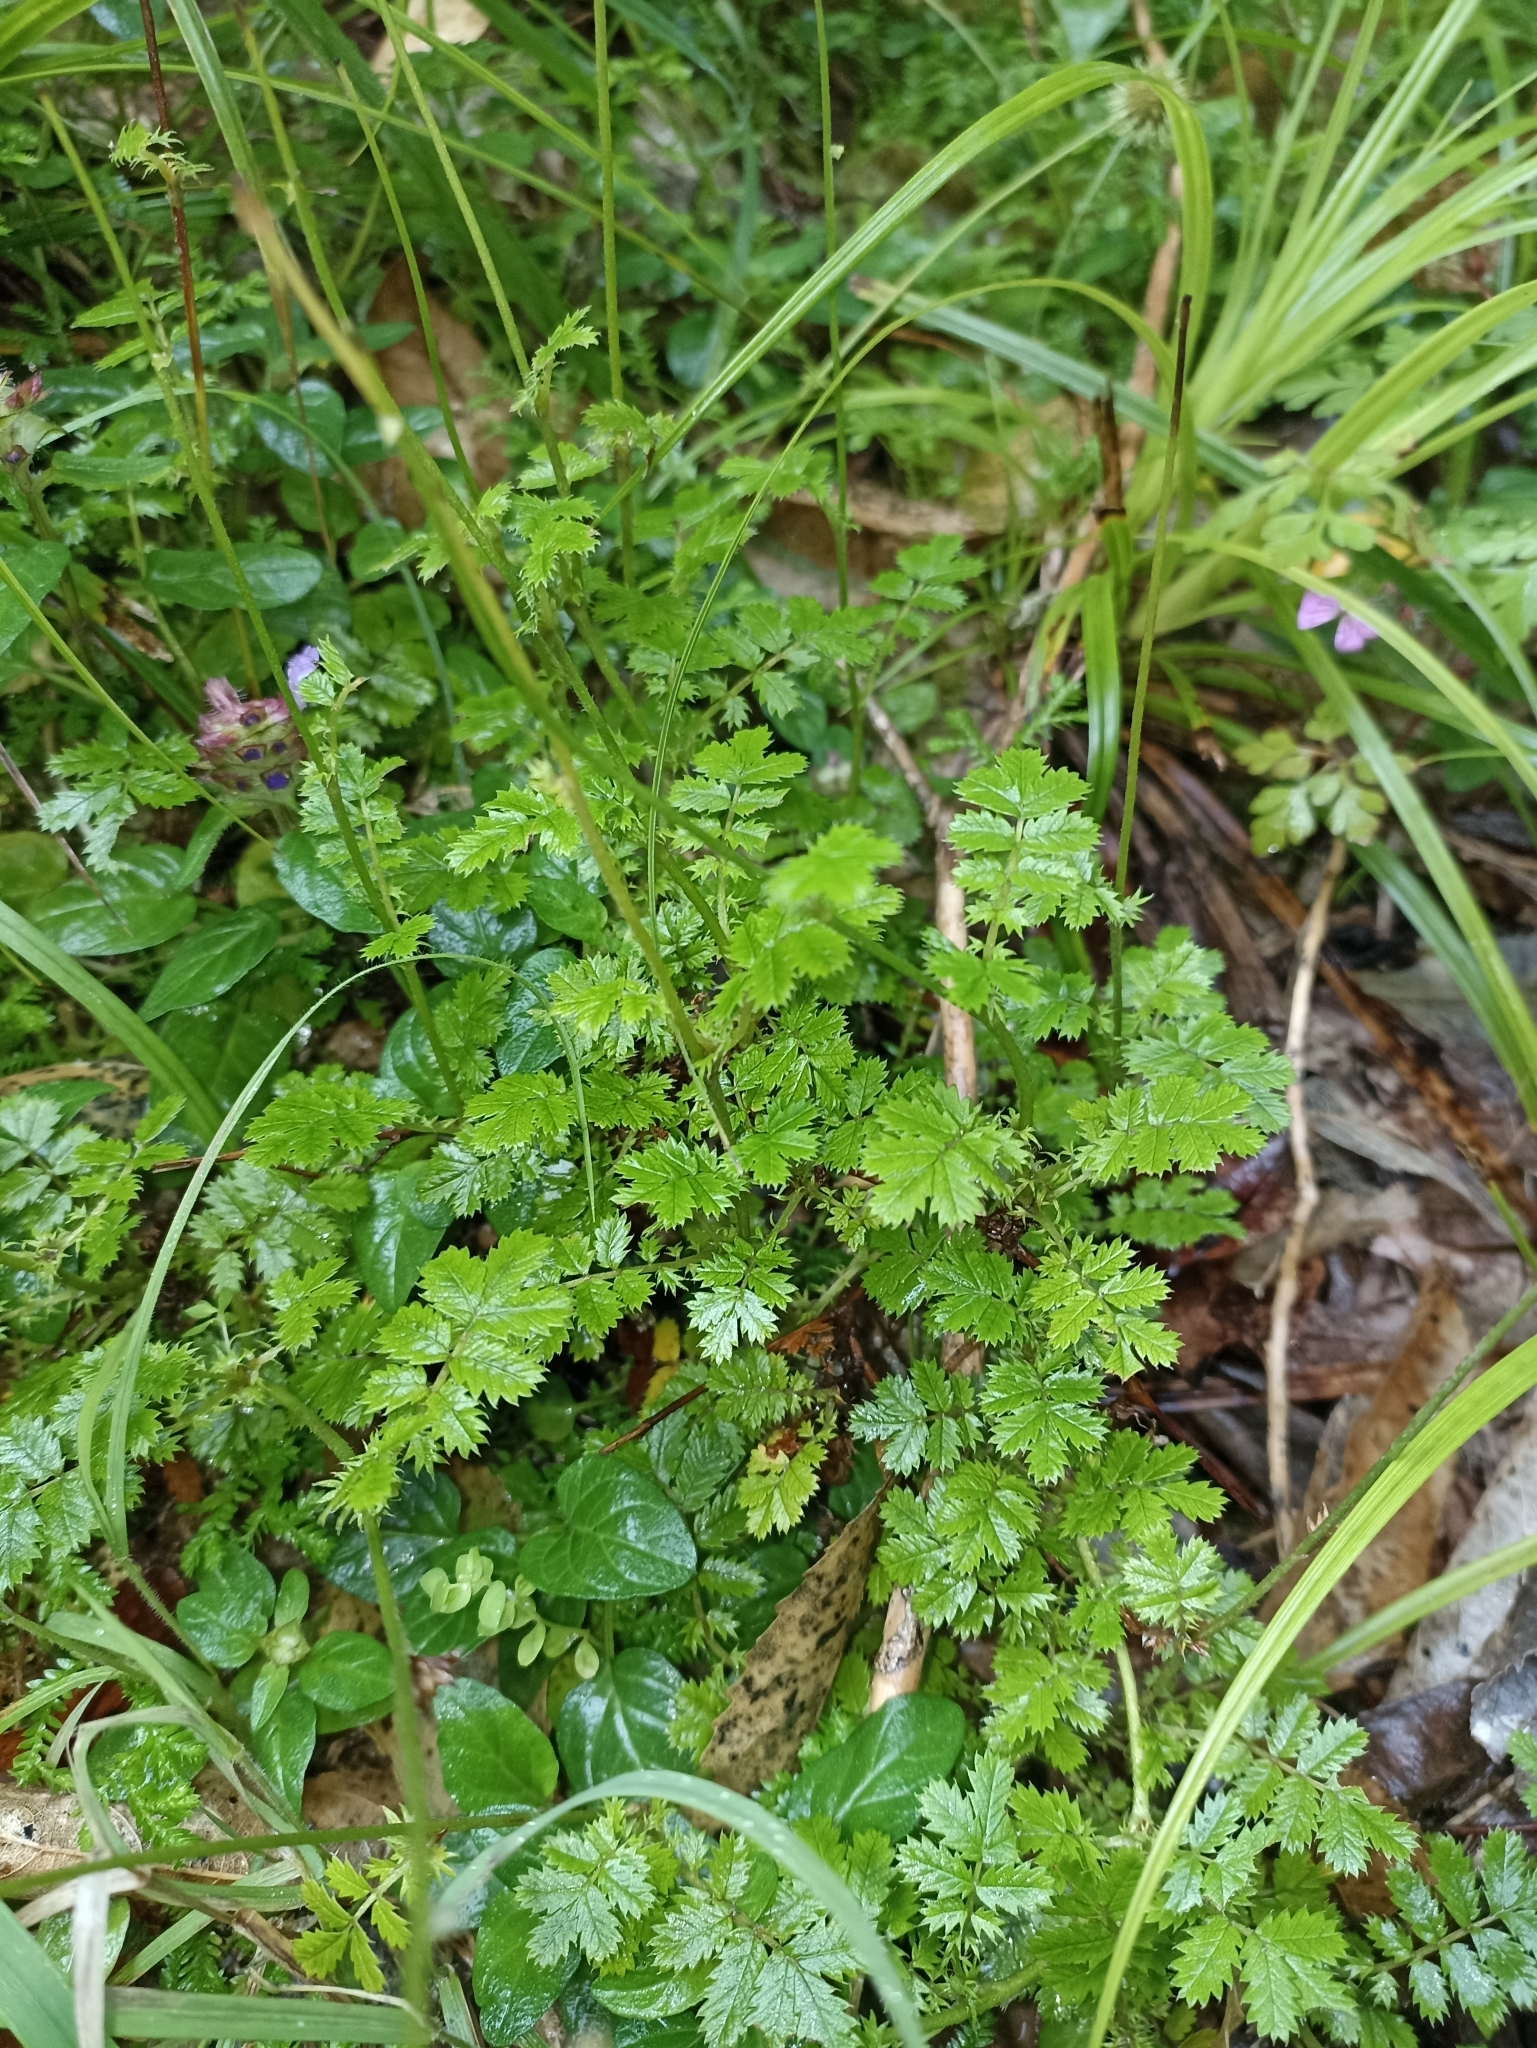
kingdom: Plantae
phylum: Tracheophyta
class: Magnoliopsida
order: Rosales
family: Rosaceae
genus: Acaena
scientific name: Acaena anserinifolia
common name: Bronze pirri-pirri-bur
